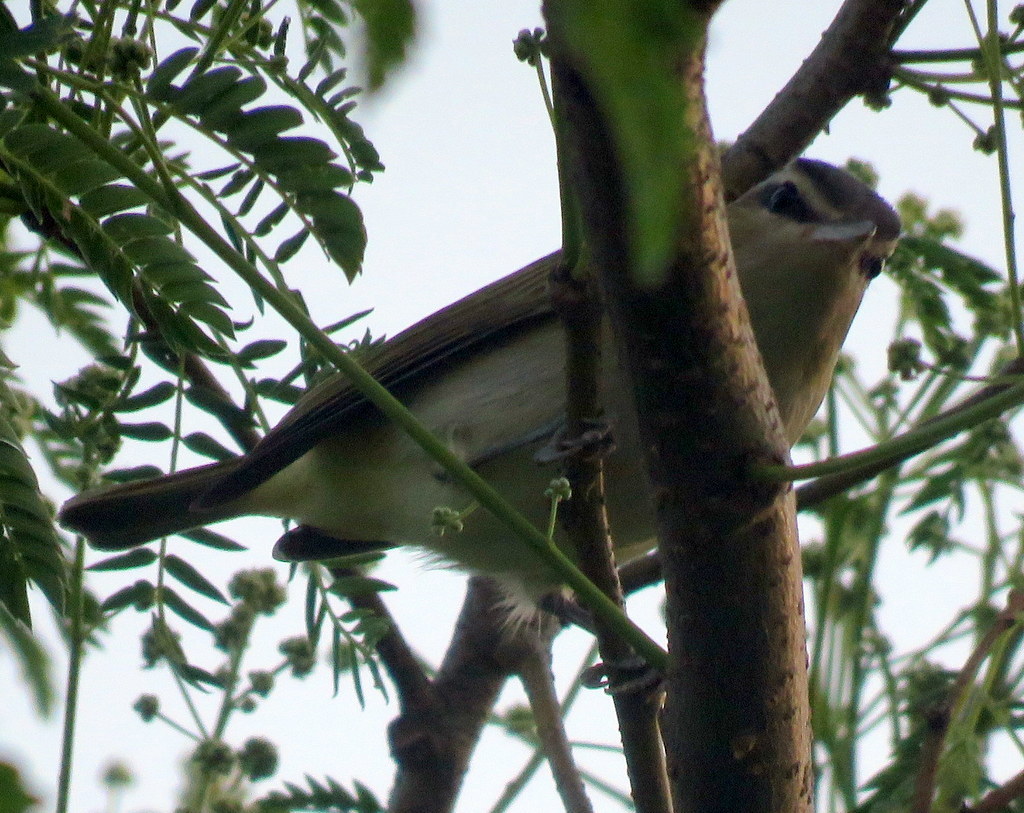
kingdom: Animalia
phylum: Chordata
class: Aves
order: Passeriformes
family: Vireonidae
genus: Vireo
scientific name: Vireo olivaceus
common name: Red-eyed vireo
